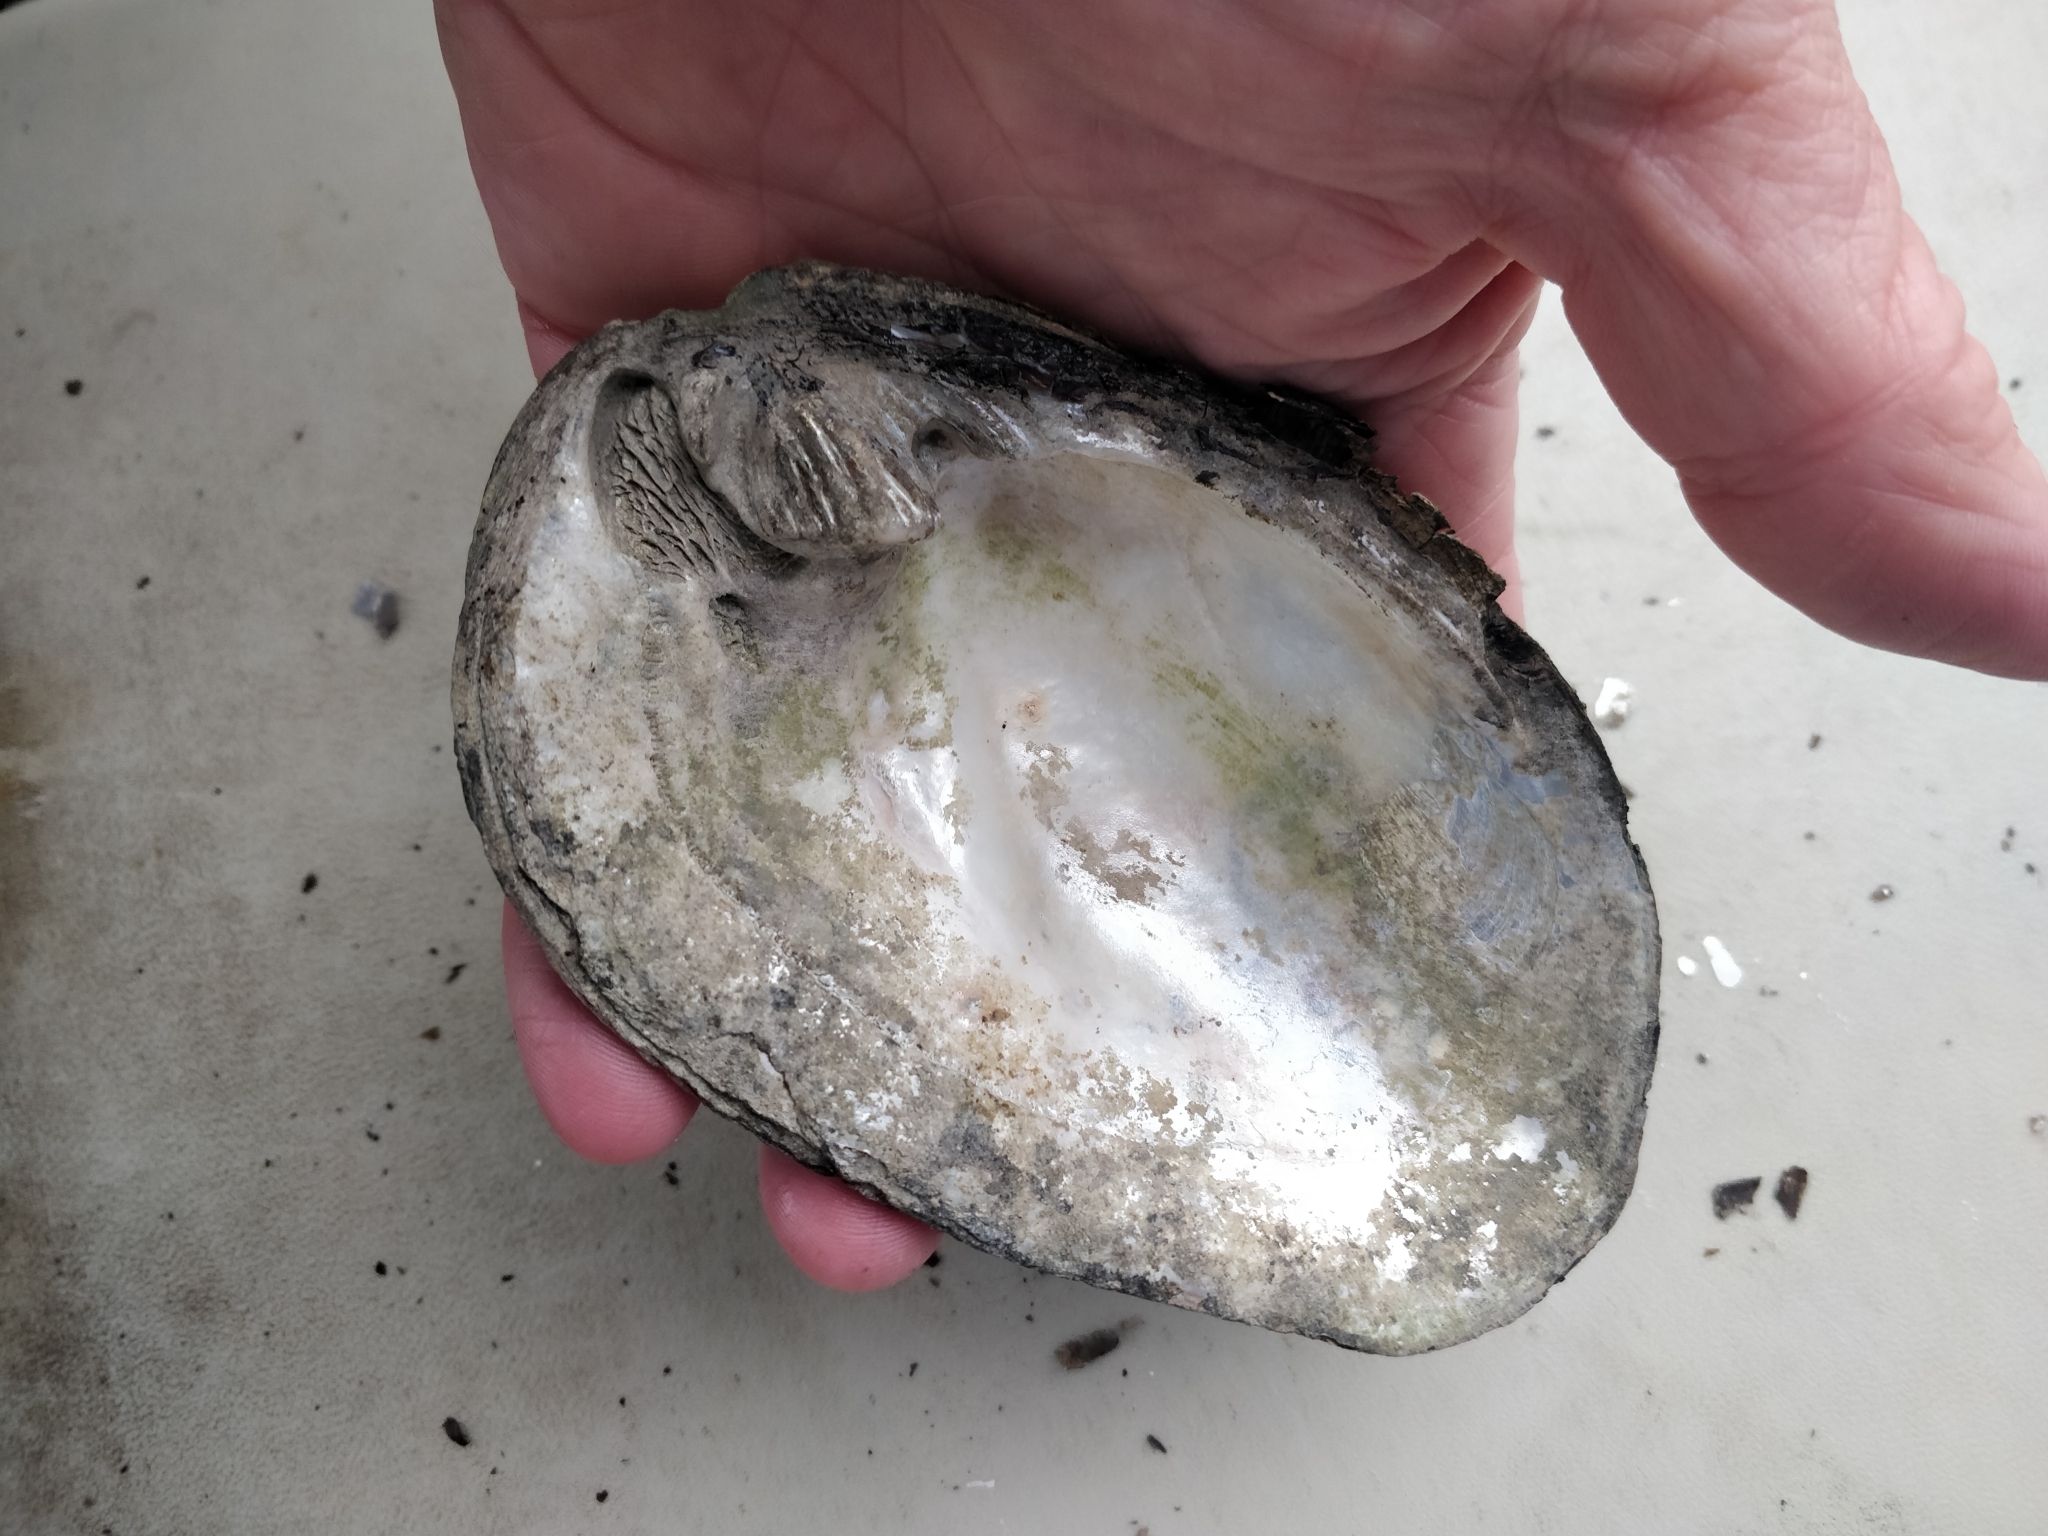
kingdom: Animalia
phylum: Mollusca
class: Bivalvia
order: Unionida
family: Unionidae
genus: Amblema
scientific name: Amblema plicata
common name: Threeridge
